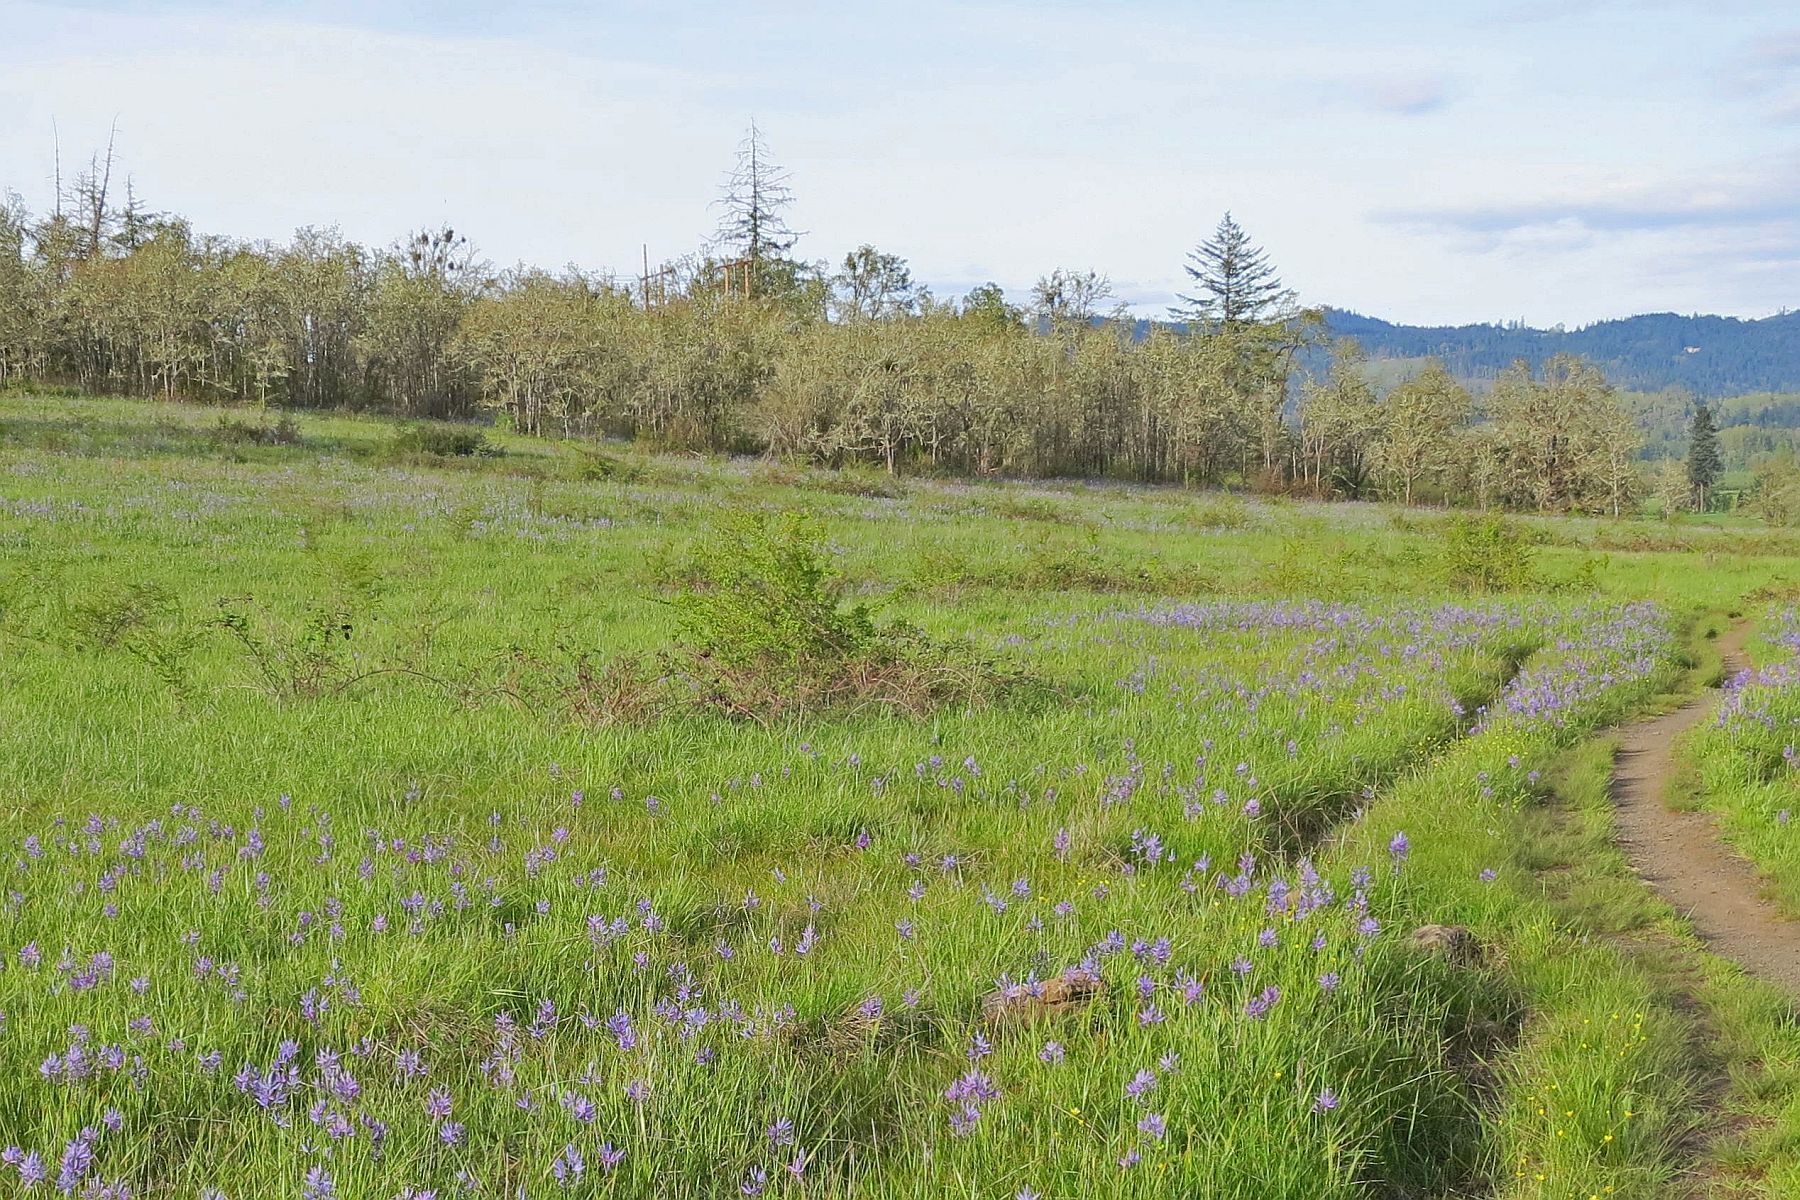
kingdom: Plantae
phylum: Tracheophyta
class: Magnoliopsida
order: Santalales
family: Viscaceae
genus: Phoradendron
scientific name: Phoradendron leucarpum
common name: Pacific mistletoe
